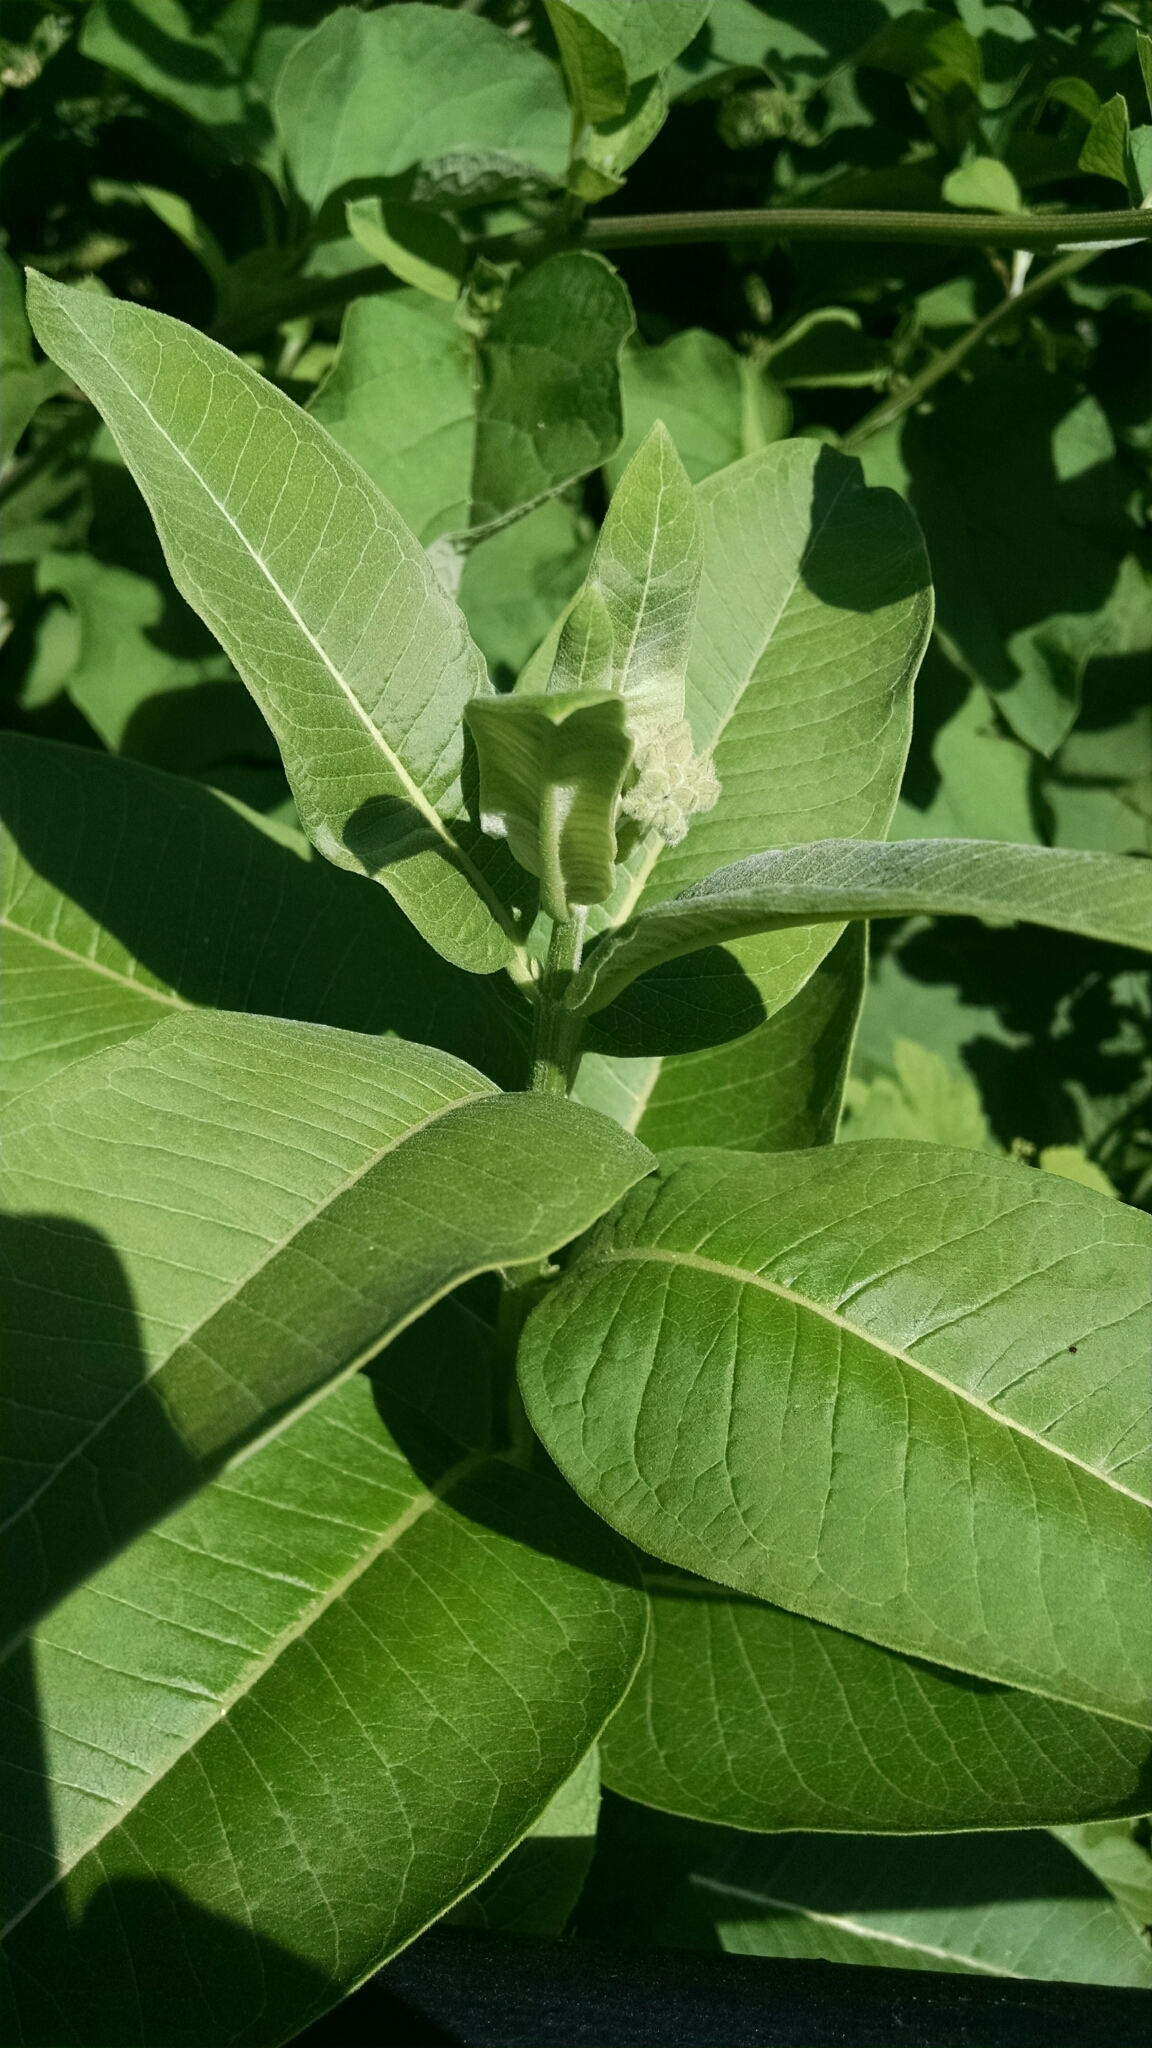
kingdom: Plantae
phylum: Tracheophyta
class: Magnoliopsida
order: Gentianales
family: Apocynaceae
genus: Asclepias
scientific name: Asclepias syriaca
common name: Common milkweed
